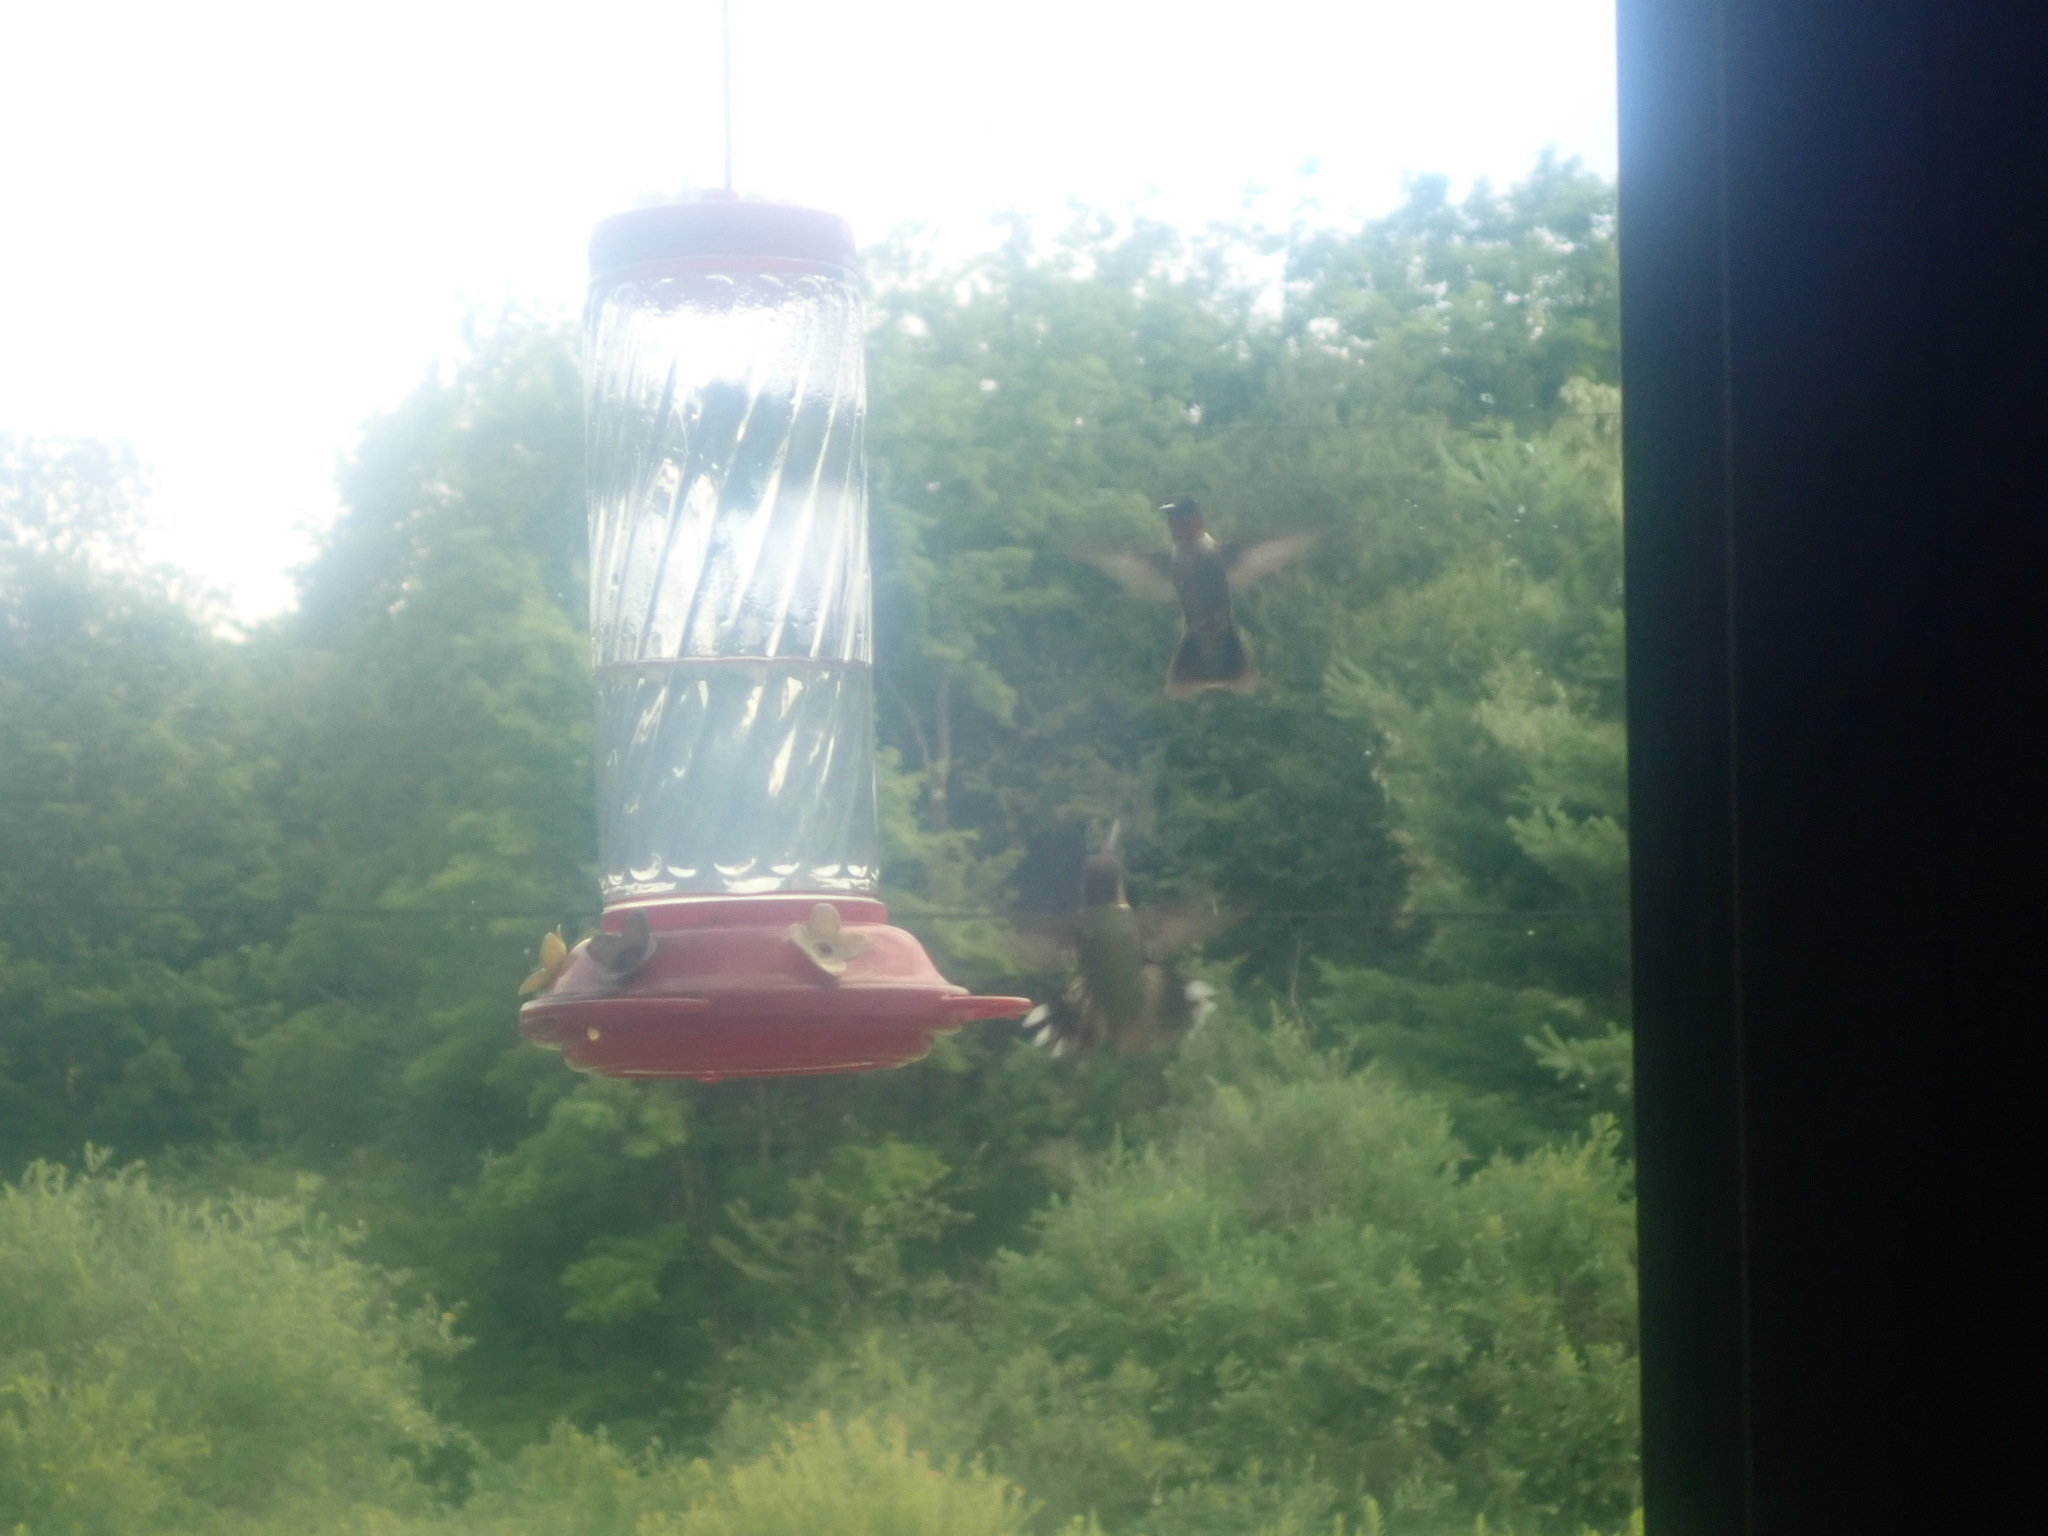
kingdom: Animalia
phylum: Chordata
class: Aves
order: Apodiformes
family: Trochilidae
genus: Archilochus
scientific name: Archilochus colubris
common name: Ruby-throated hummingbird
